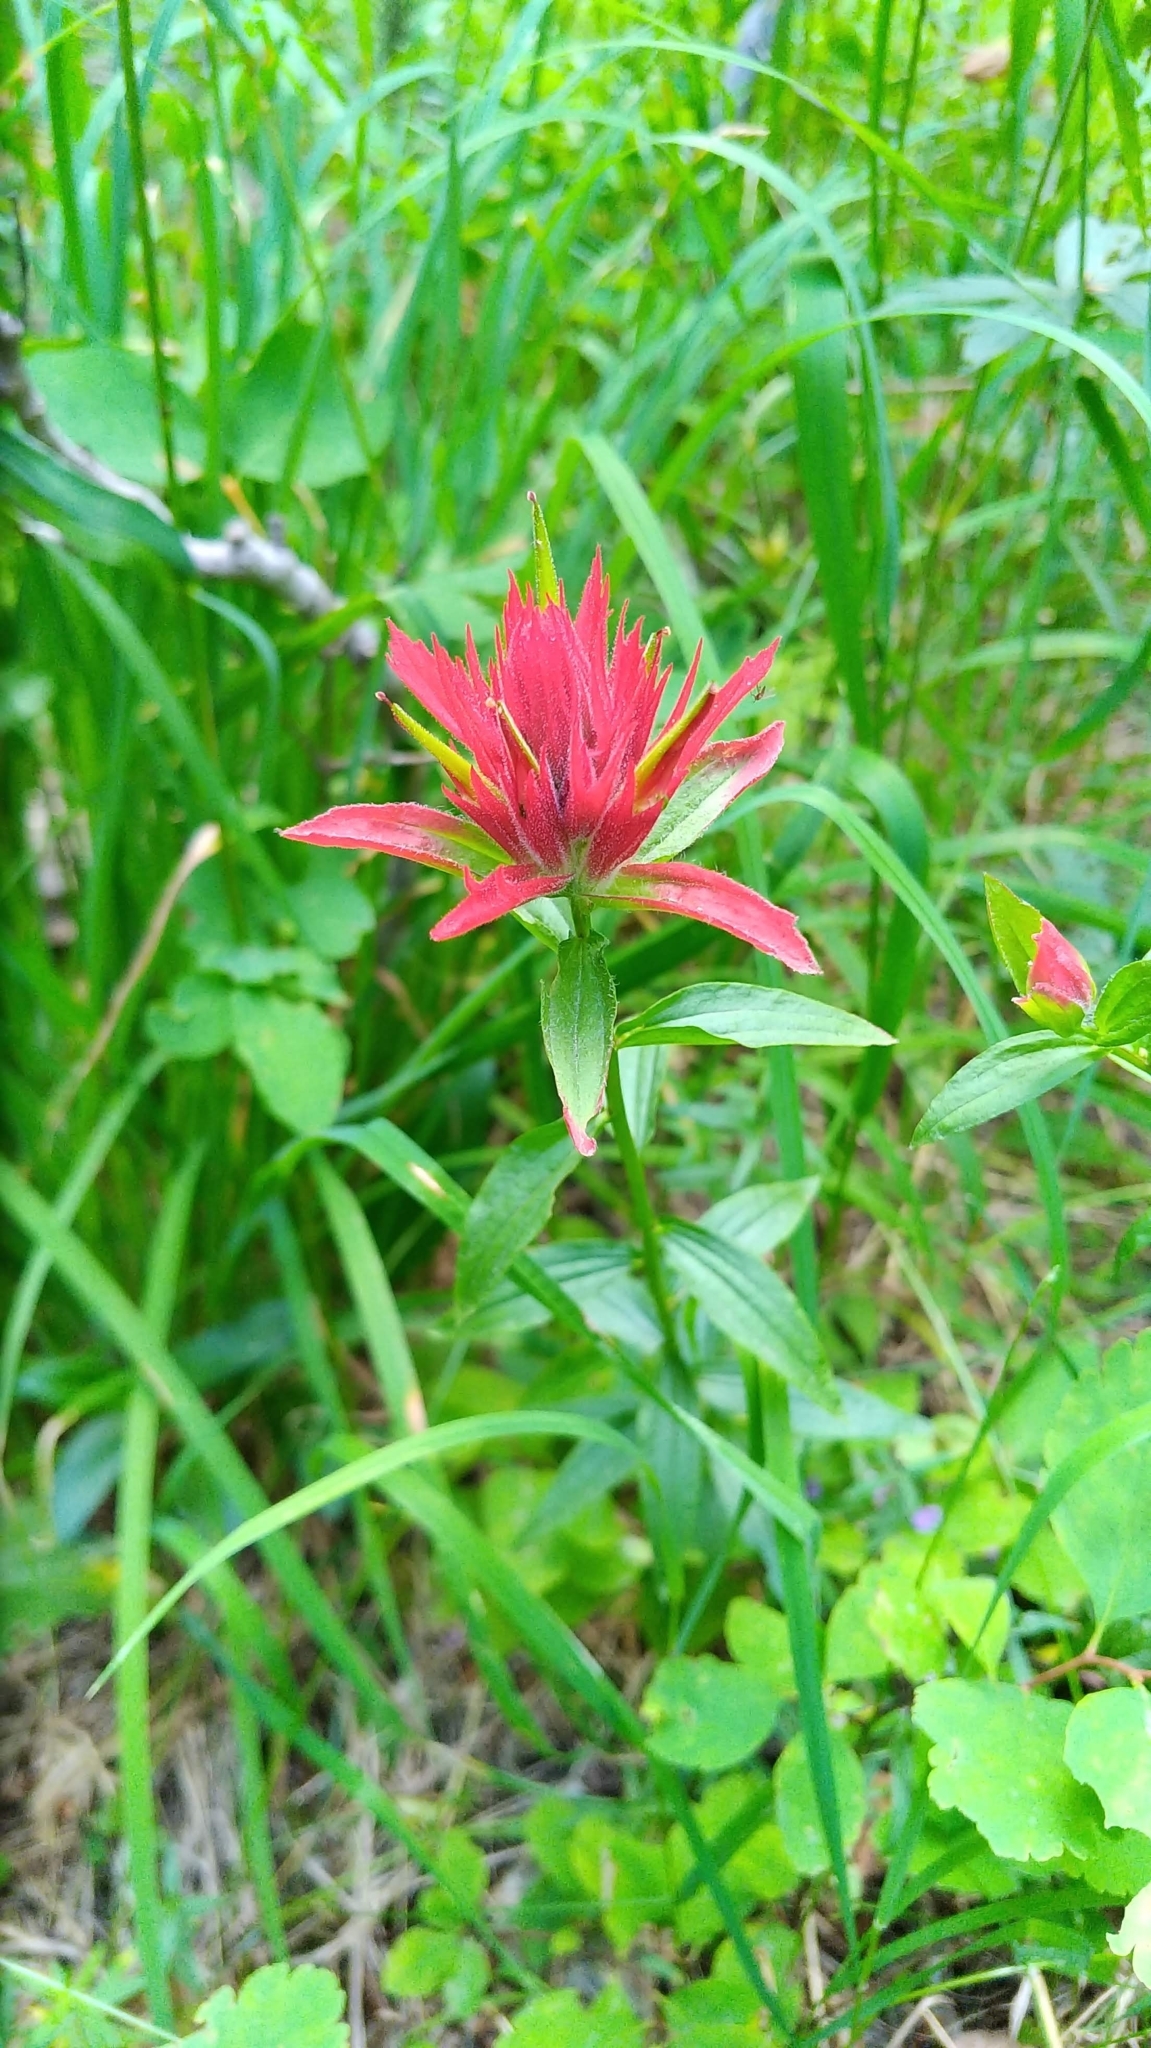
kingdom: Plantae
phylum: Tracheophyta
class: Magnoliopsida
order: Lamiales
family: Orobanchaceae
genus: Castilleja
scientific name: Castilleja miniata
